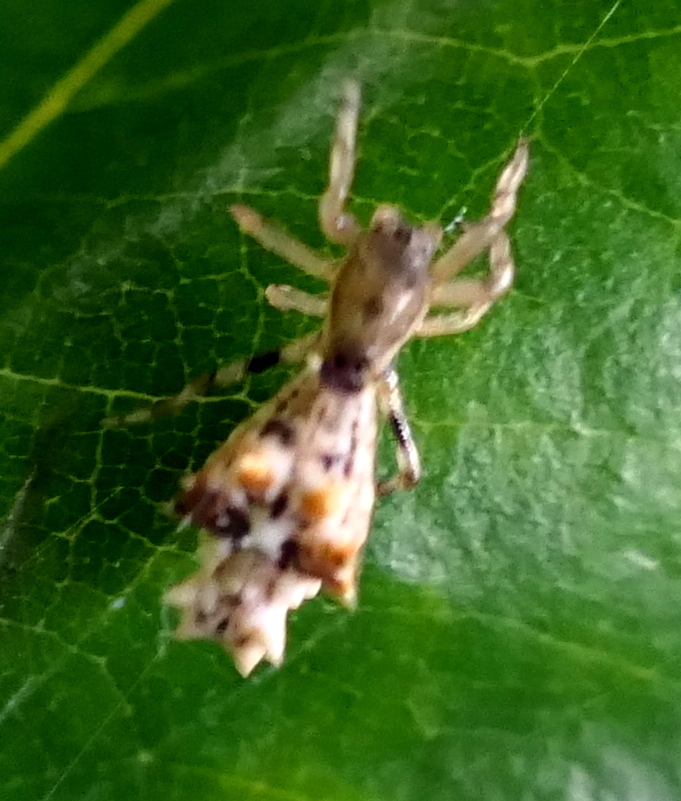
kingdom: Animalia
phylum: Arthropoda
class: Arachnida
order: Araneae
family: Araneidae
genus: Micrathena
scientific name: Micrathena horrida
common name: Orb weavers
